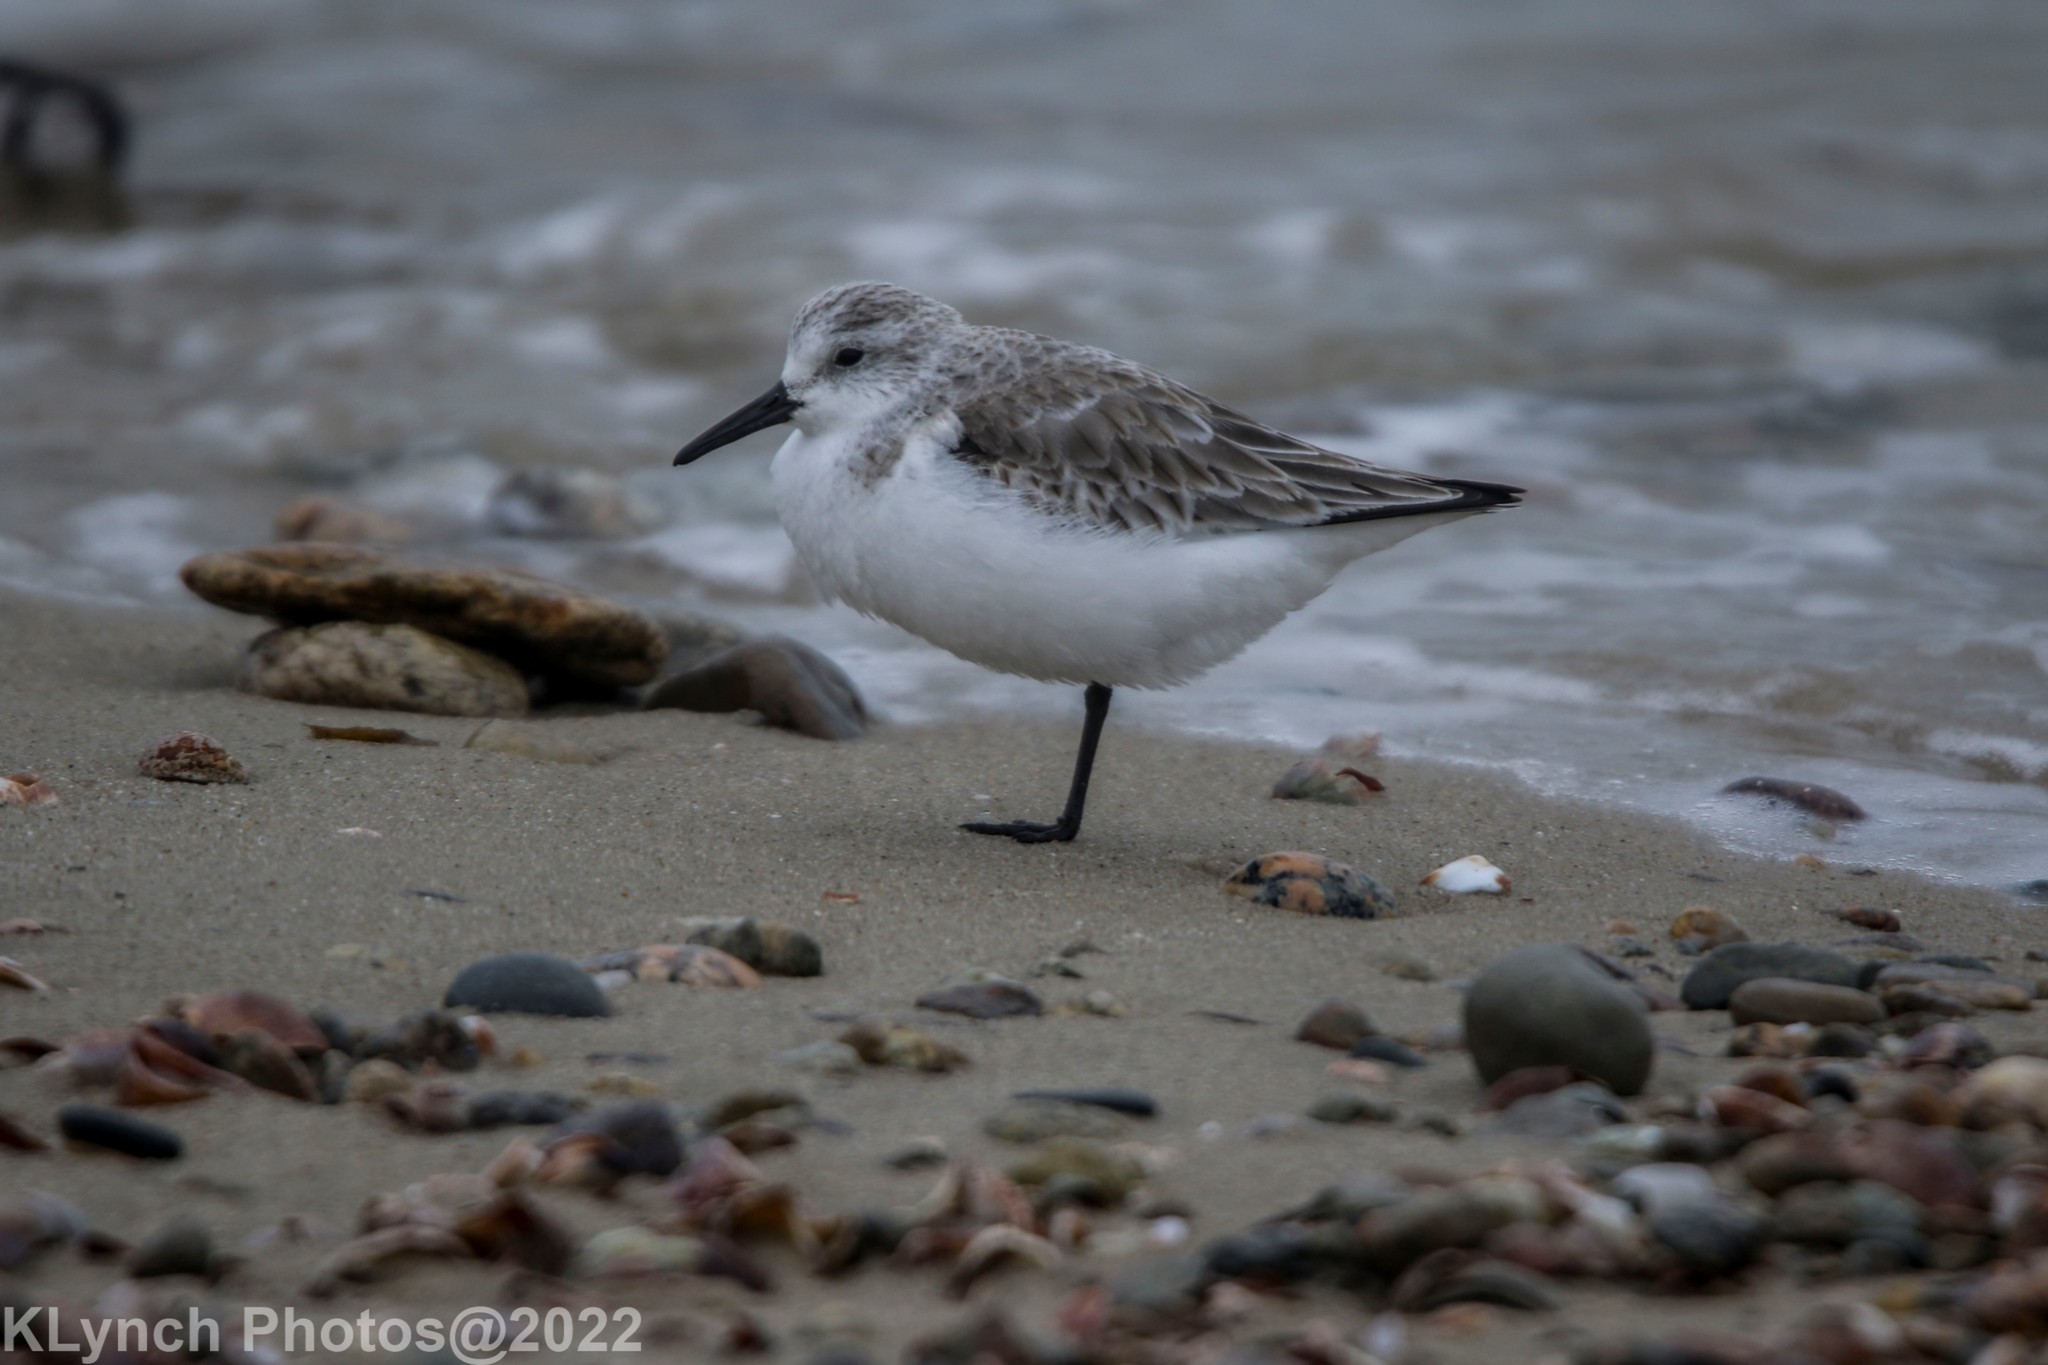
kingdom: Animalia
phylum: Chordata
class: Aves
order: Charadriiformes
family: Scolopacidae
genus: Calidris
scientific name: Calidris alba
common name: Sanderling
